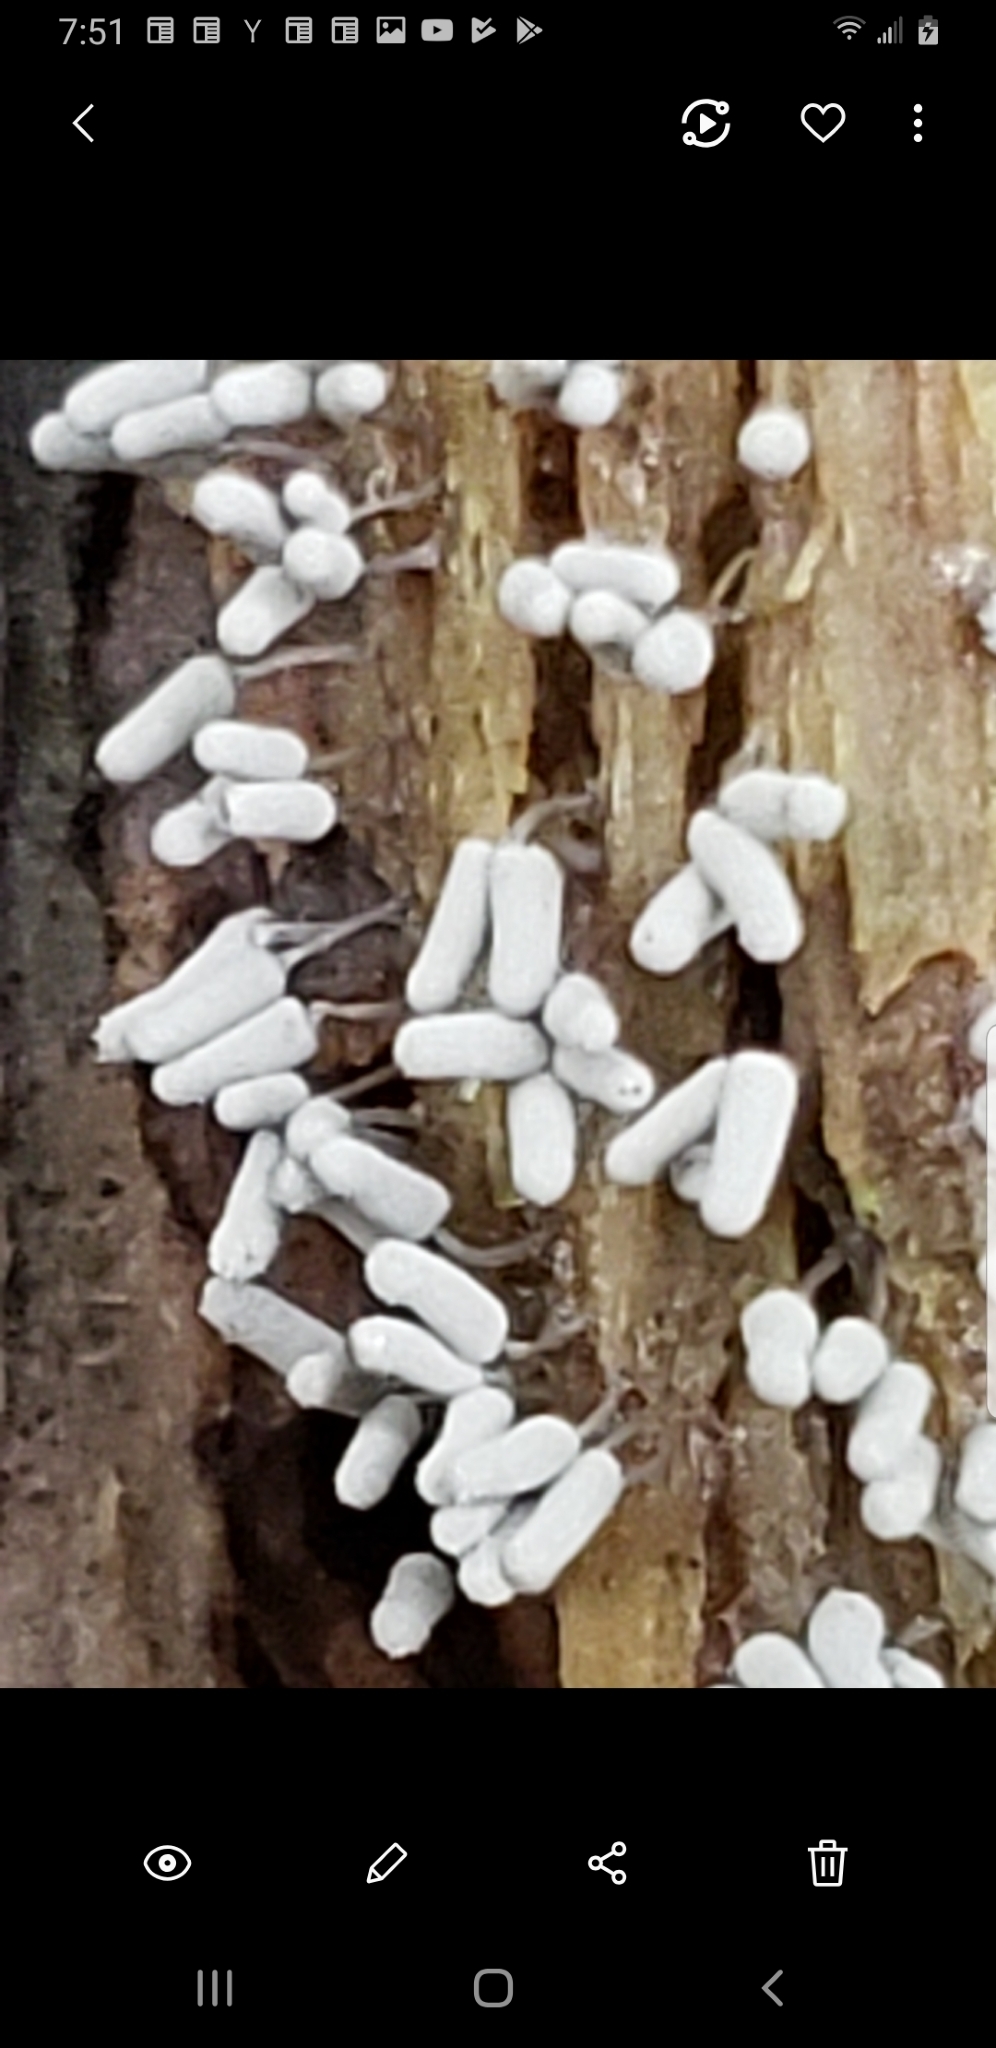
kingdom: Protozoa
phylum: Mycetozoa
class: Myxomycetes
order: Trichiales
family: Arcyriaceae
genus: Arcyria
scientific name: Arcyria cinerea
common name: White carnival candy slime mold
